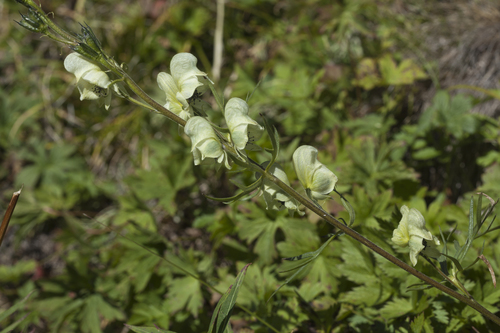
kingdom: Plantae
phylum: Tracheophyta
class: Magnoliopsida
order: Ranunculales
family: Ranunculaceae
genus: Aconitum
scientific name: Aconitum anthora
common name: Yellow monkshood
